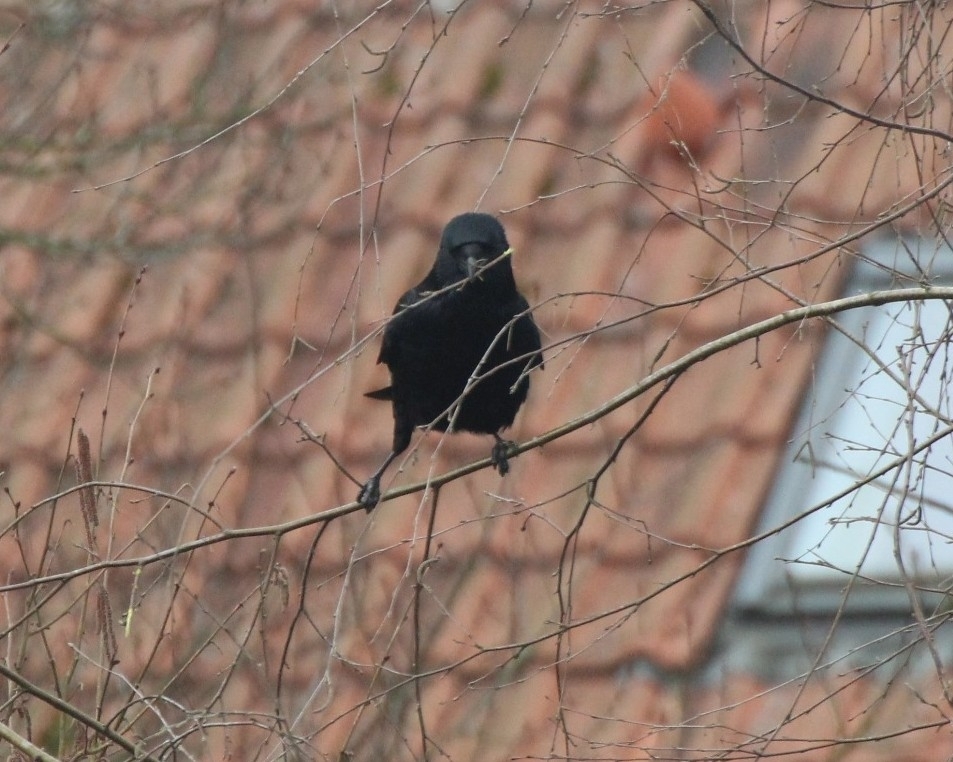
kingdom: Animalia
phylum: Chordata
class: Aves
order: Passeriformes
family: Corvidae
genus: Corvus
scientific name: Corvus corone
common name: Carrion crow
